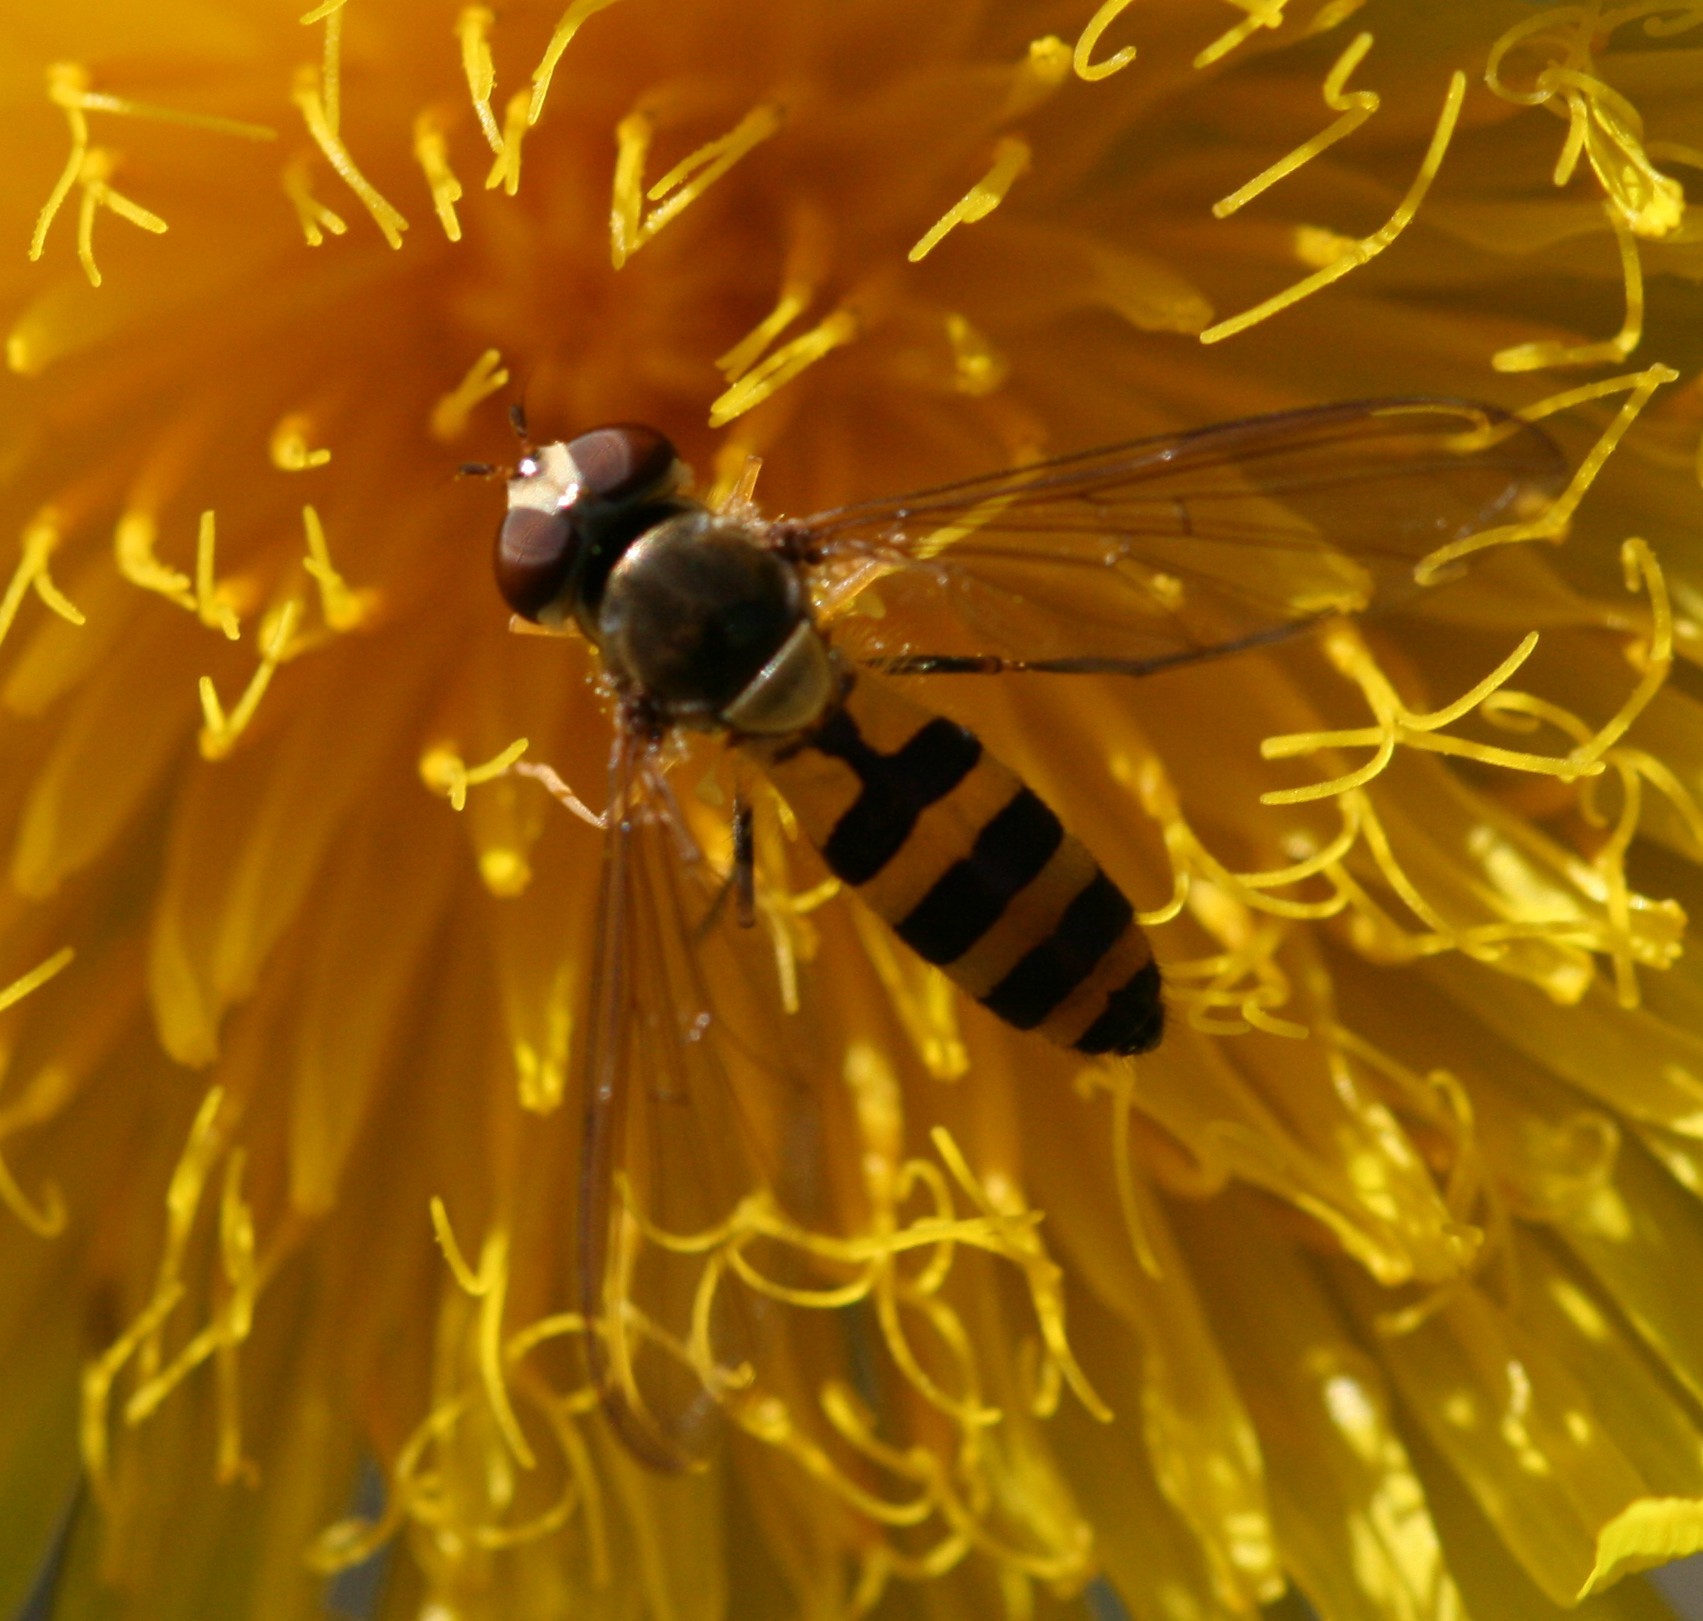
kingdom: Animalia
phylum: Arthropoda
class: Insecta
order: Diptera
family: Syrphidae
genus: Meliscaeva
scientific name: Meliscaeva cinctella
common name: American thintail fly
